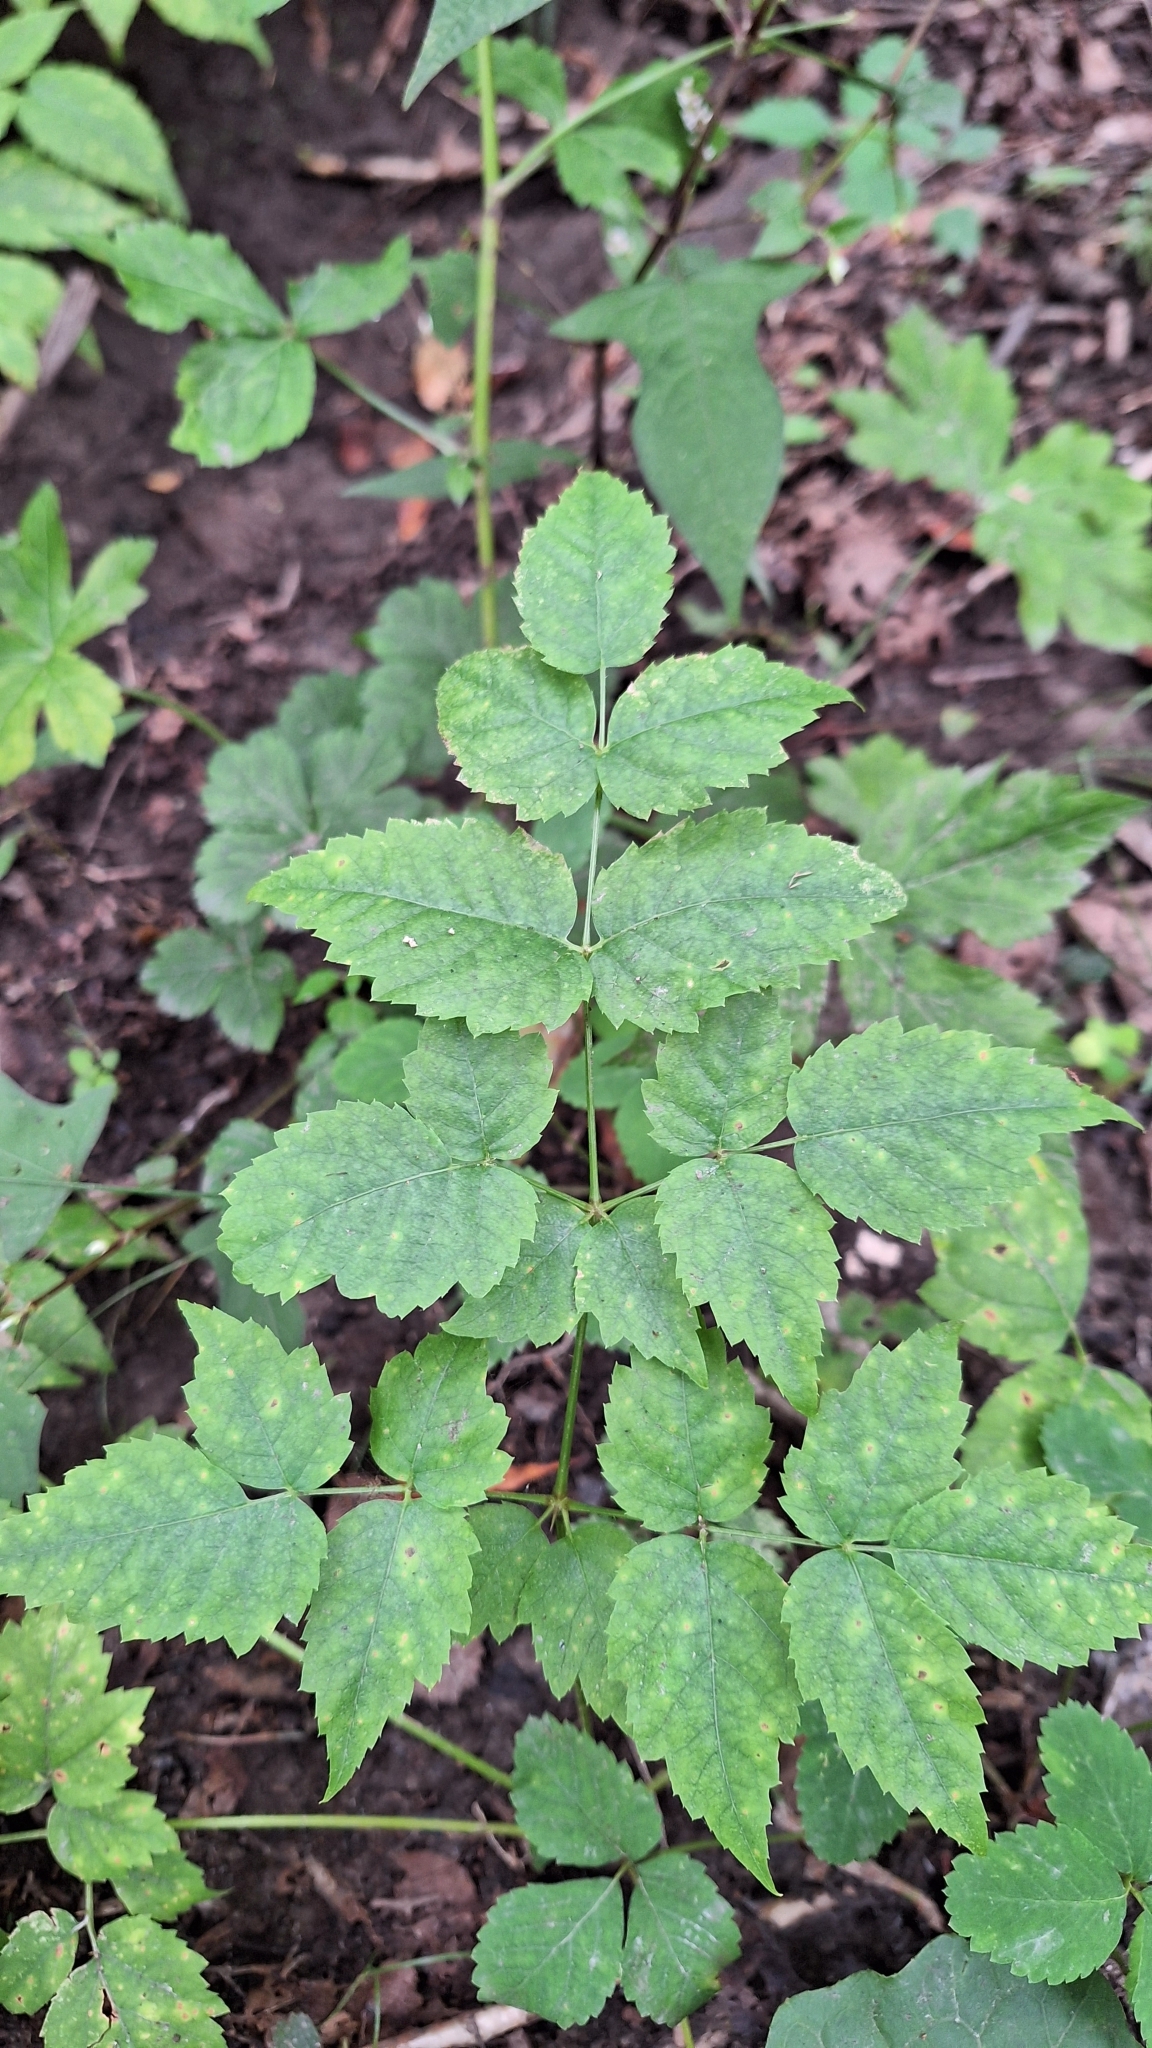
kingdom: Plantae
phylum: Tracheophyta
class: Magnoliopsida
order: Apiales
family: Araliaceae
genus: Aralia
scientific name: Aralia elata
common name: Japanese angelica-tree
